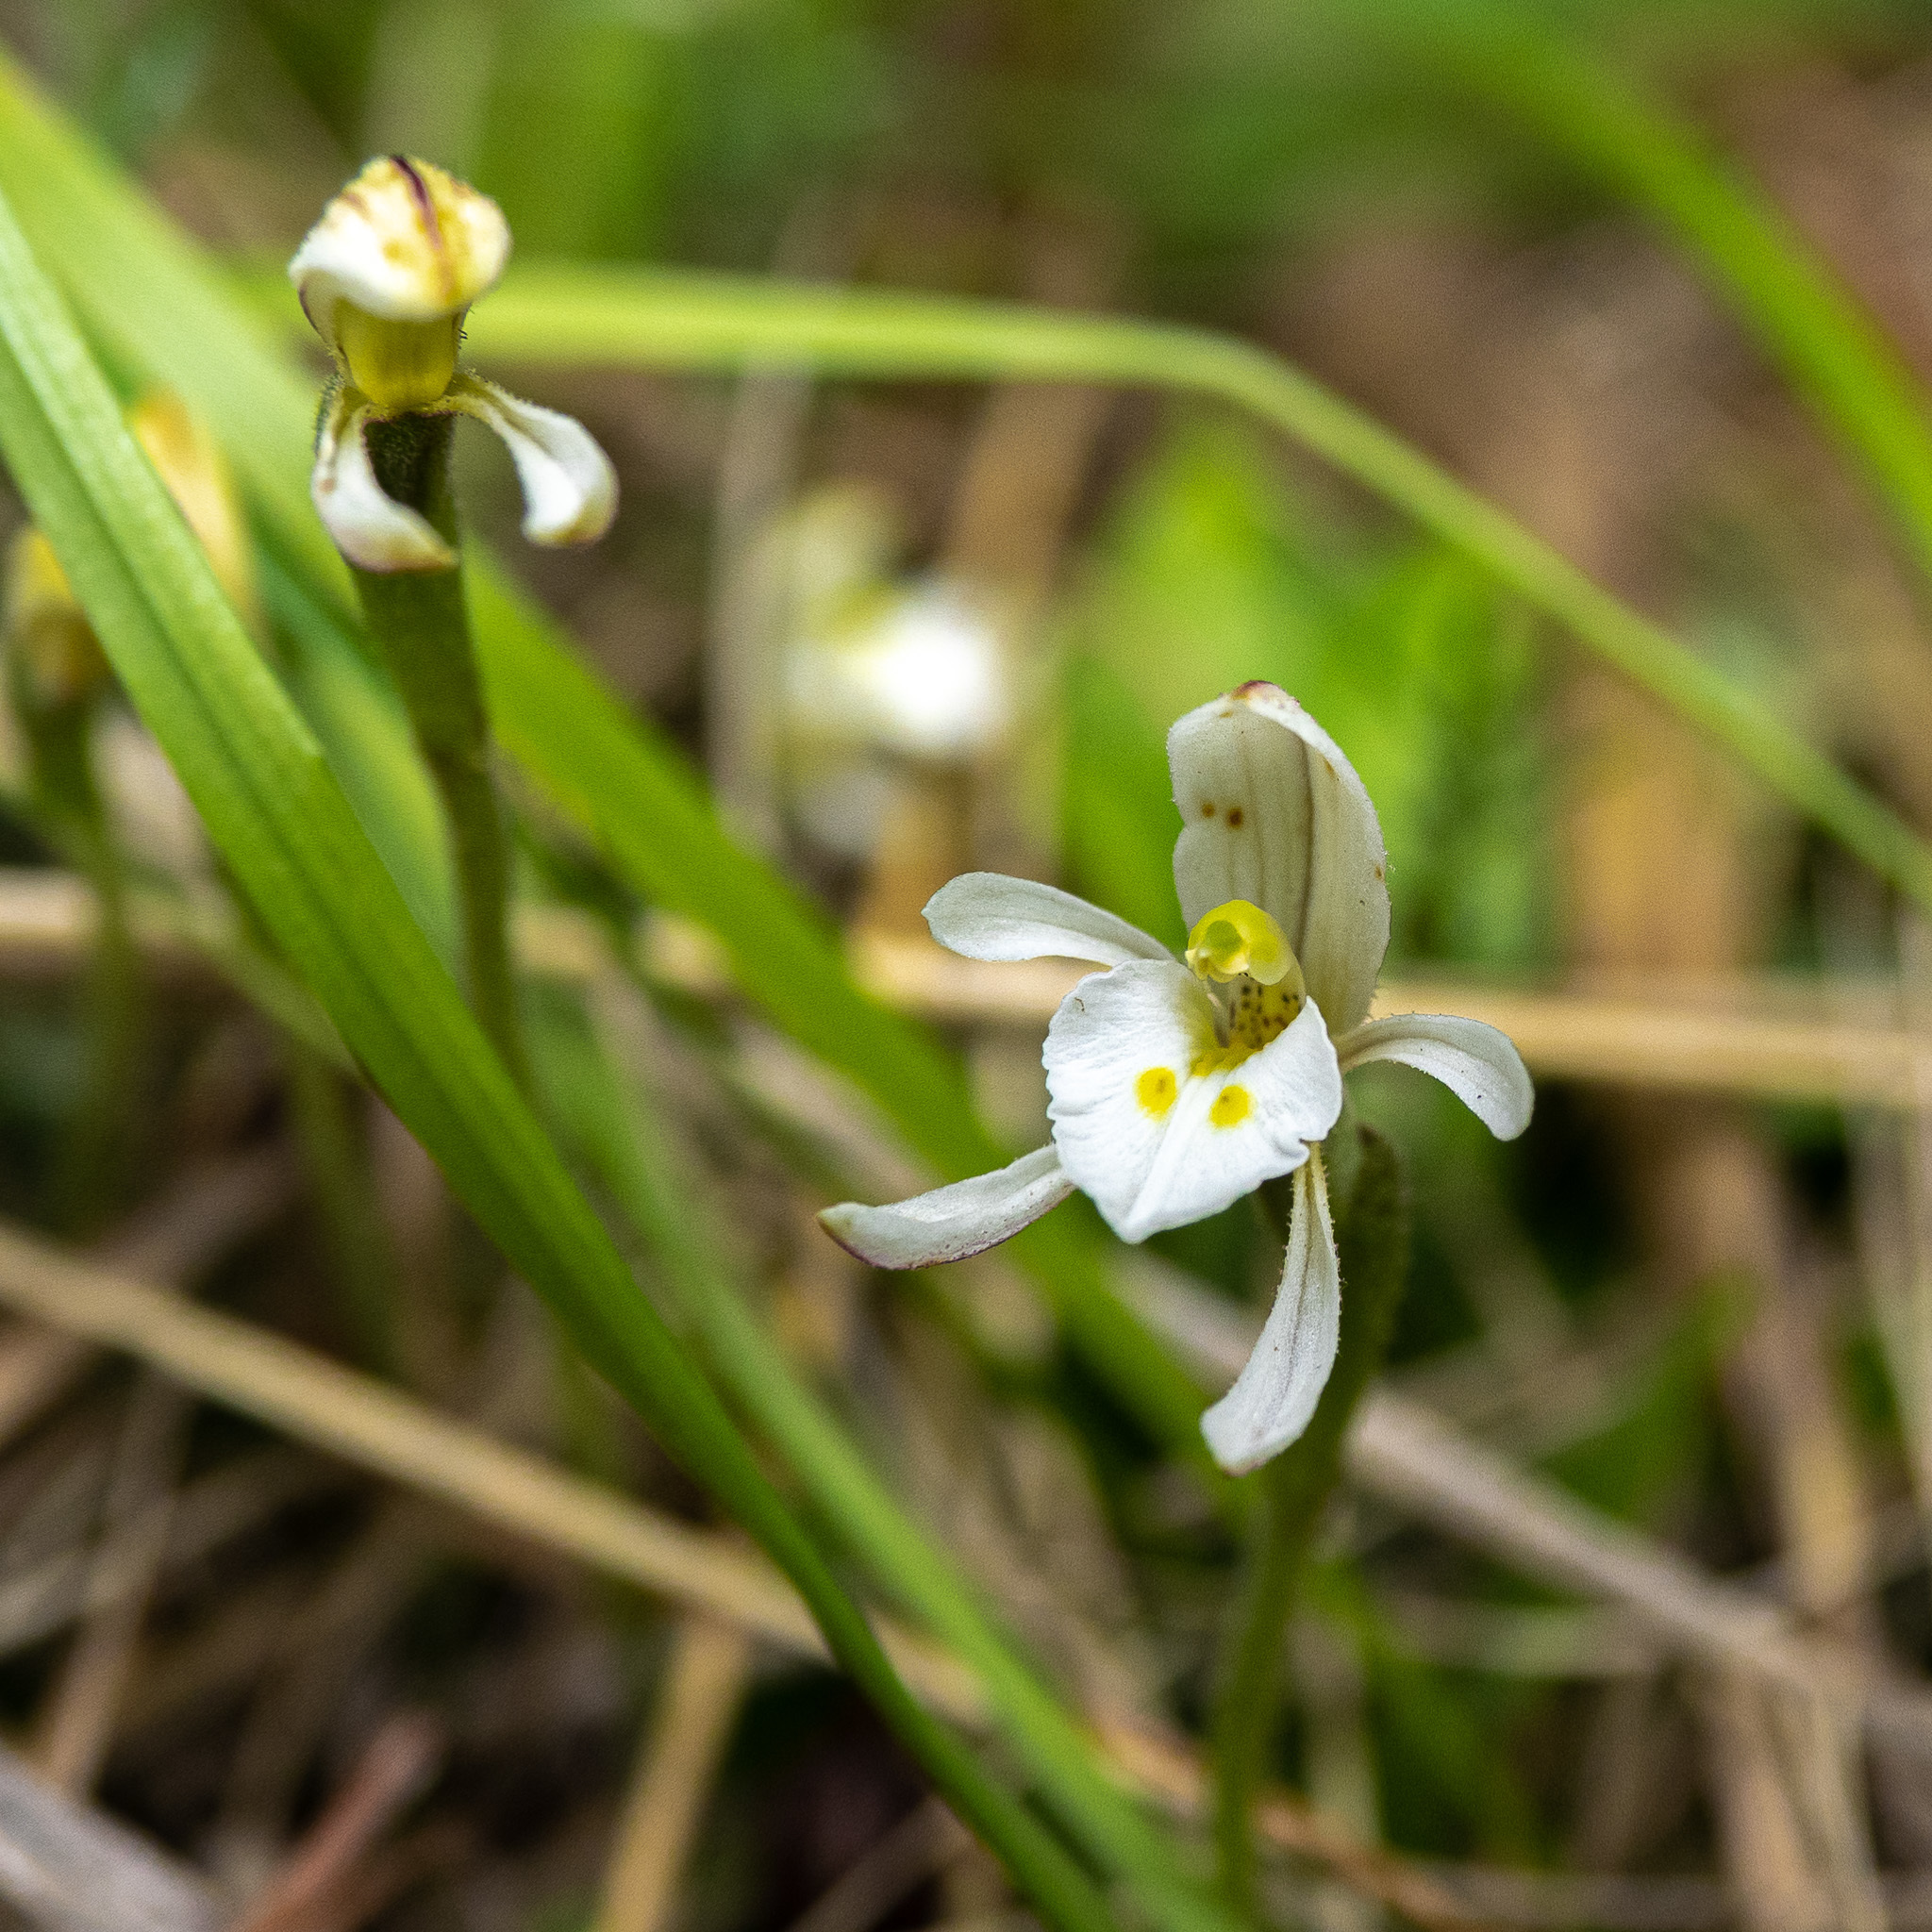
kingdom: Plantae
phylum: Tracheophyta
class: Liliopsida
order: Asparagales
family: Orchidaceae
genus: Aporostylis
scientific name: Aporostylis bifolia
